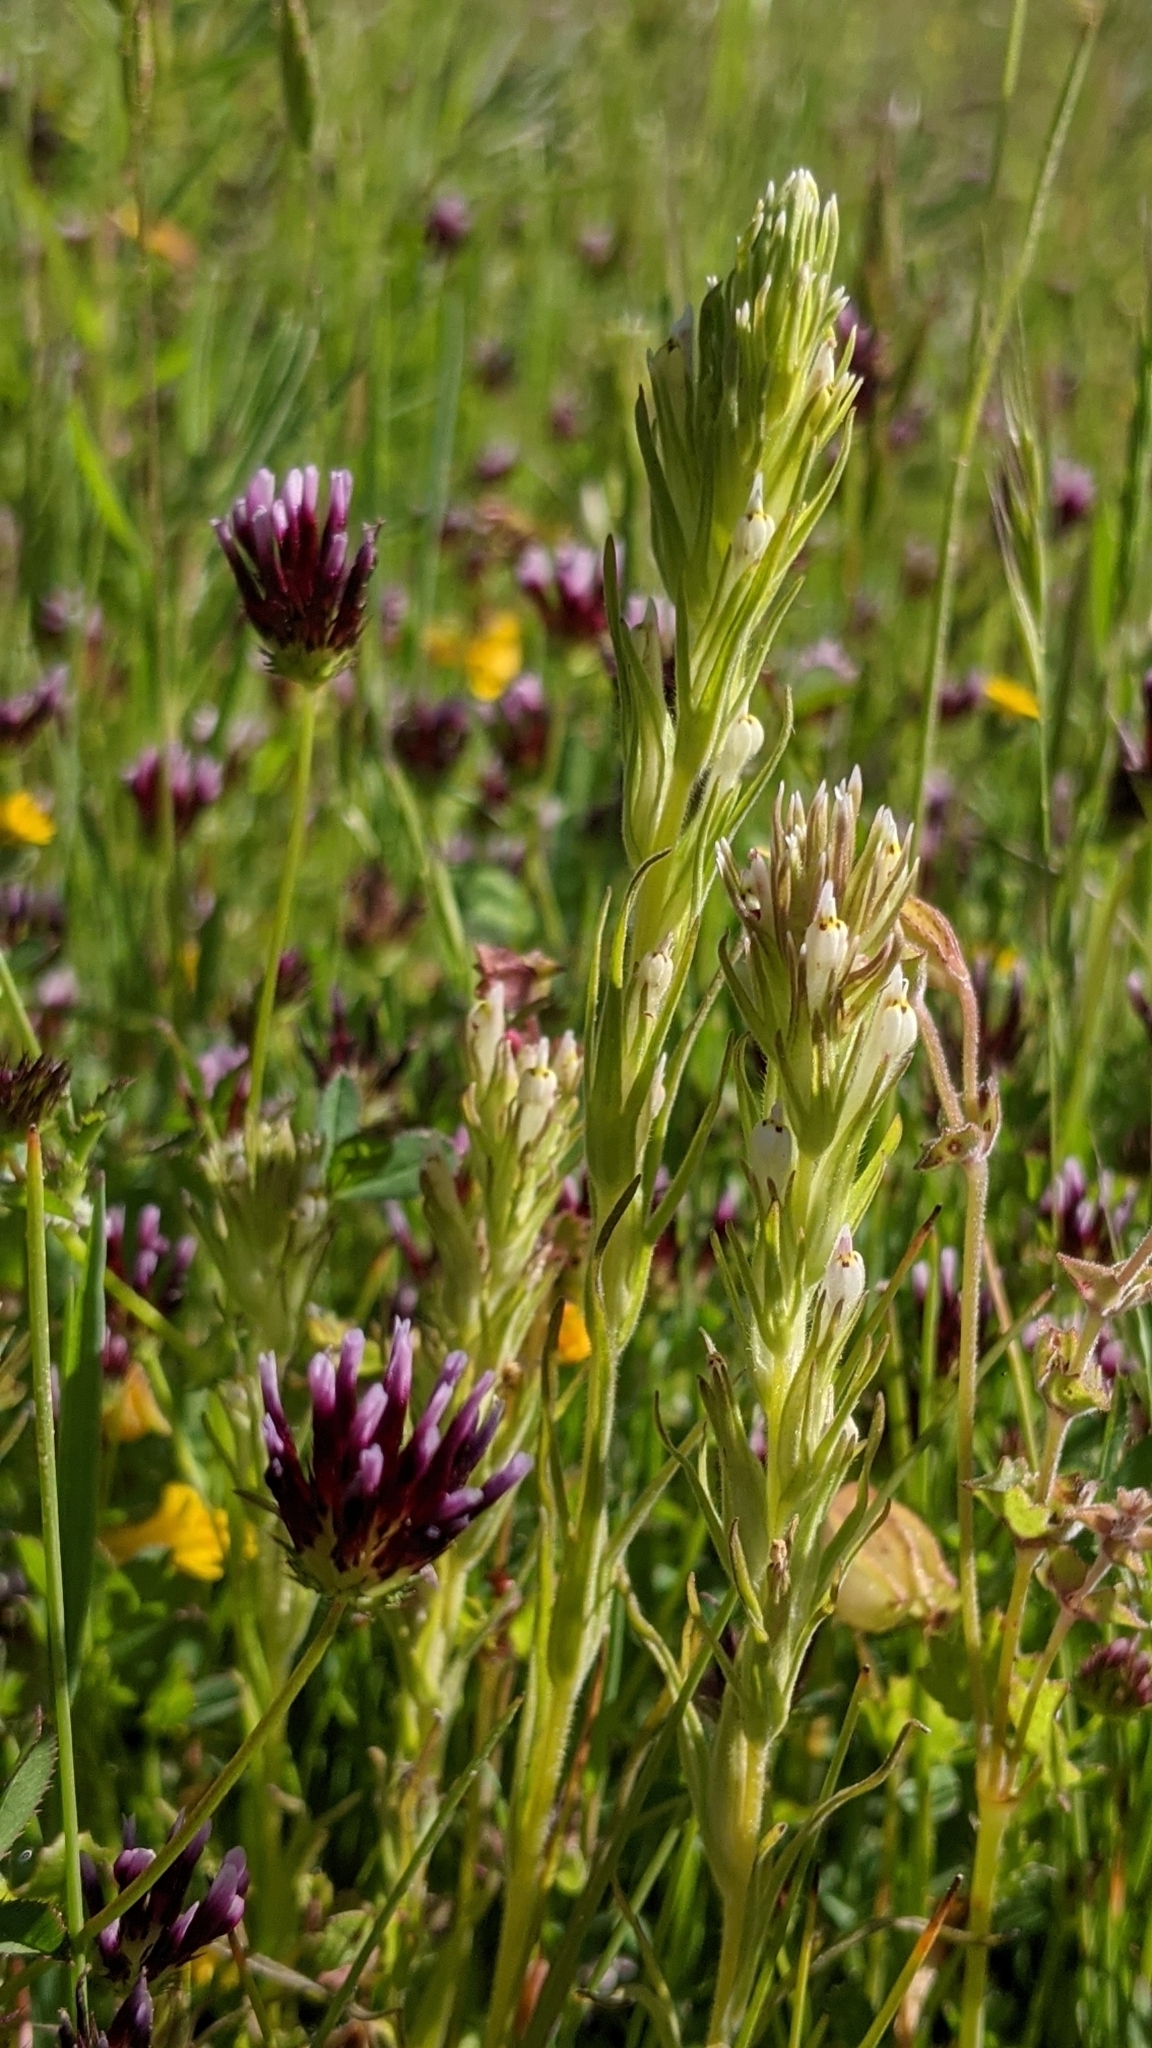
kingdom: Plantae
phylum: Tracheophyta
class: Magnoliopsida
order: Lamiales
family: Orobanchaceae
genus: Castilleja
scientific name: Castilleja attenuata
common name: Valley tassels
